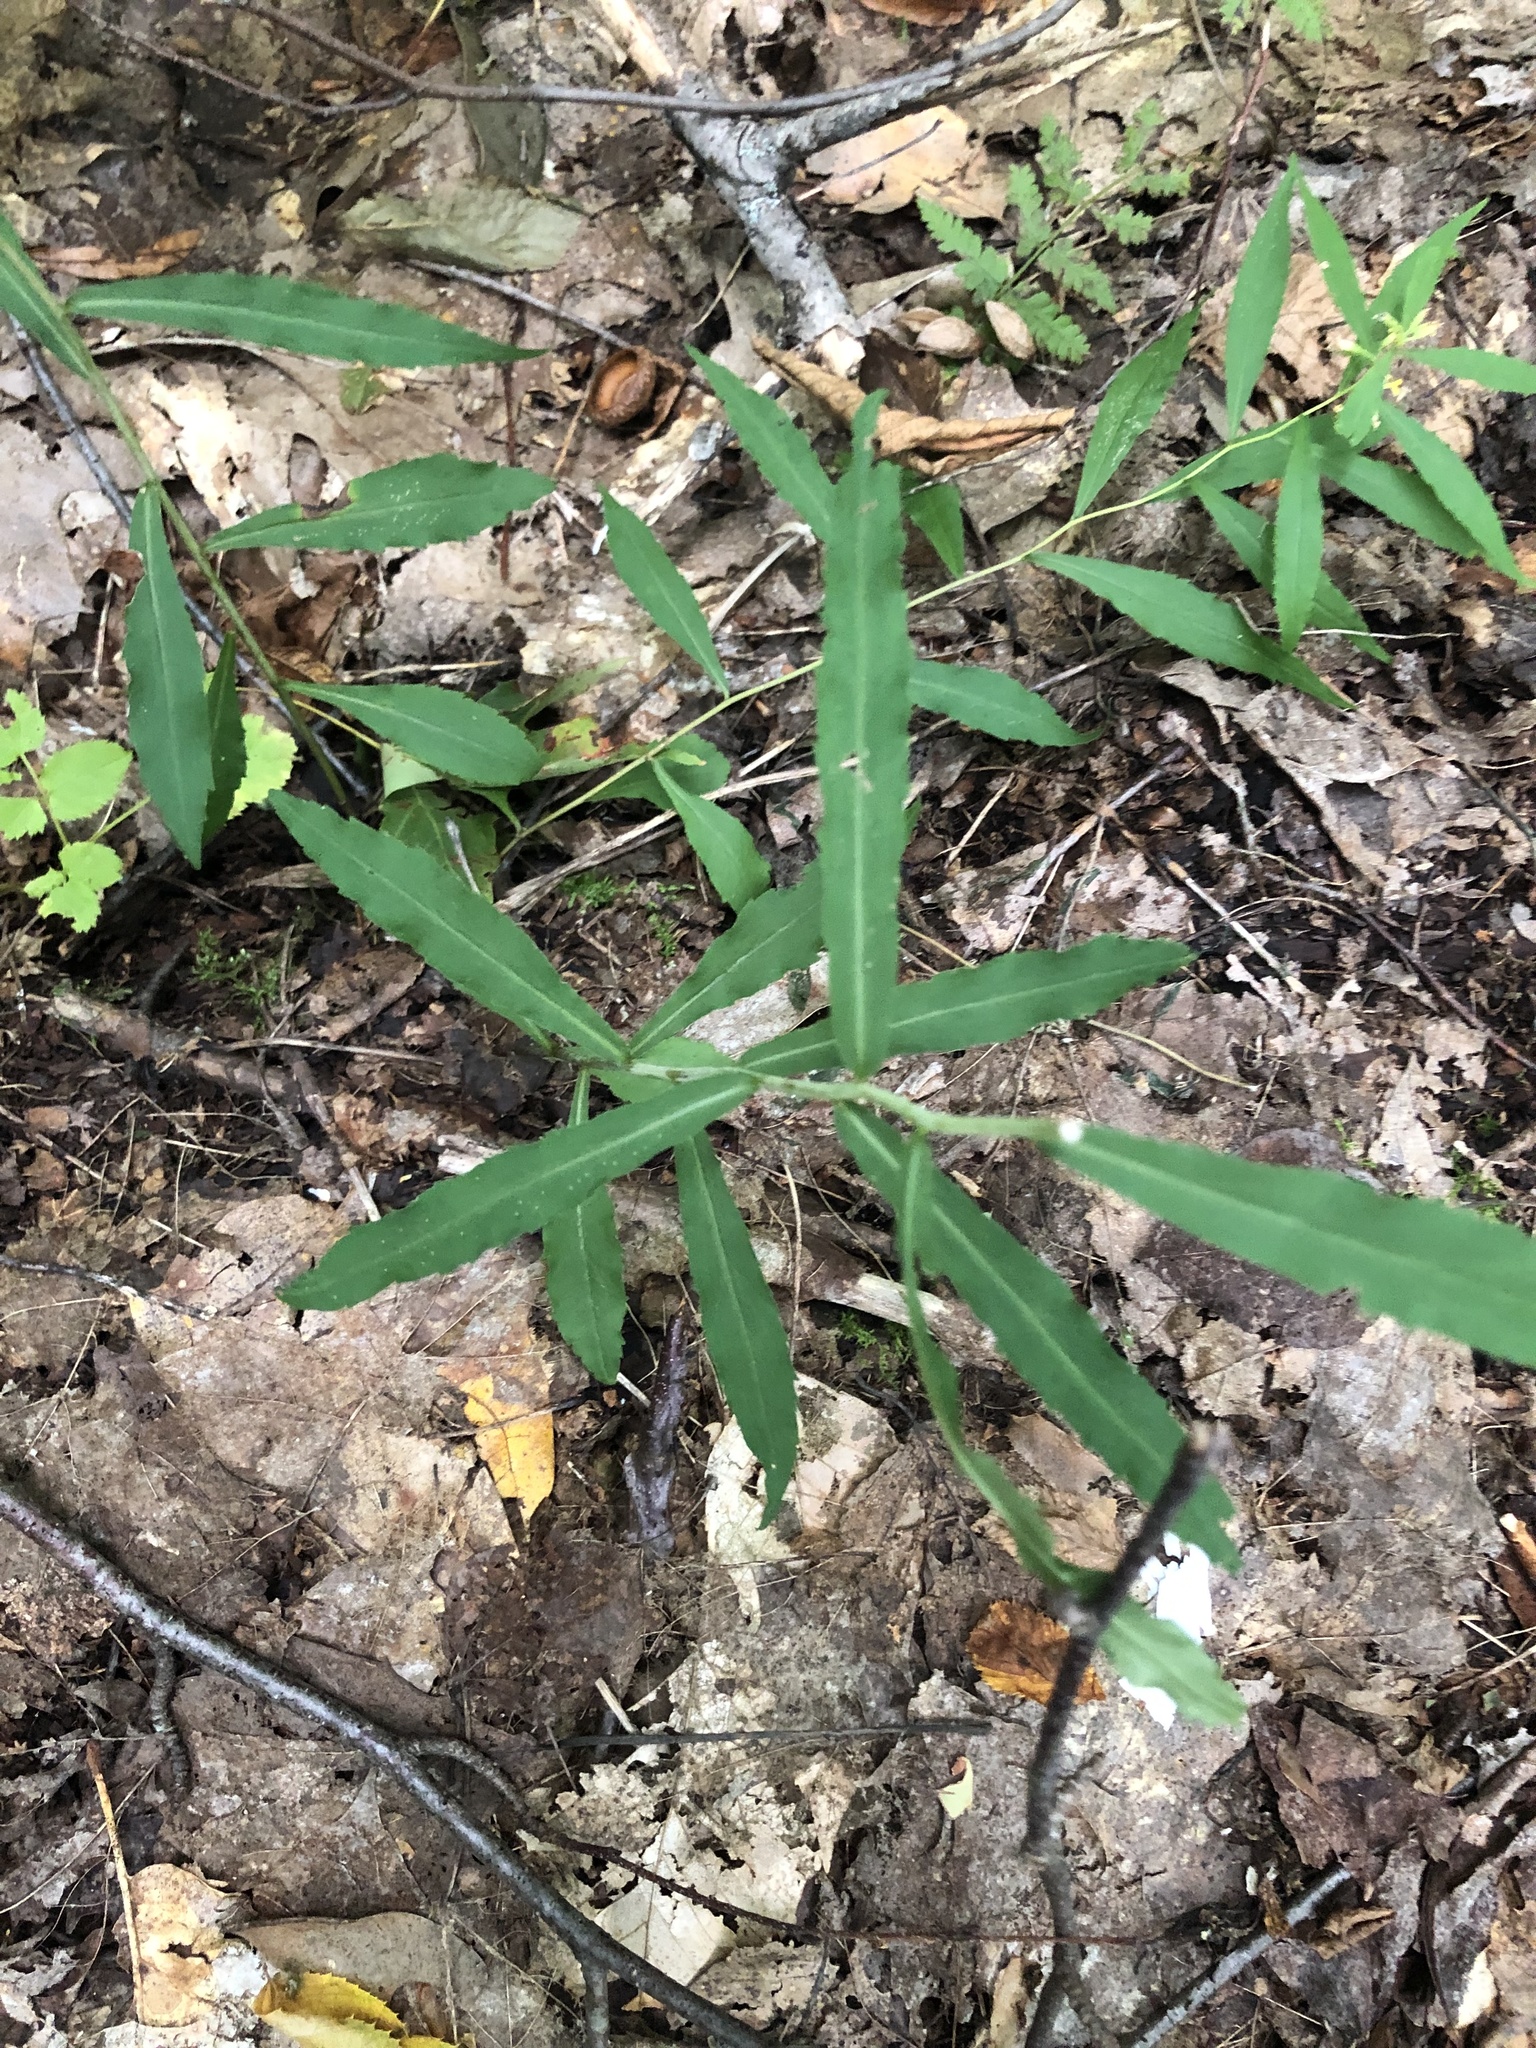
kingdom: Plantae
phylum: Tracheophyta
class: Magnoliopsida
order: Asterales
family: Asteraceae
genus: Solidago
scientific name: Solidago caesia
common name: Woodland goldenrod
